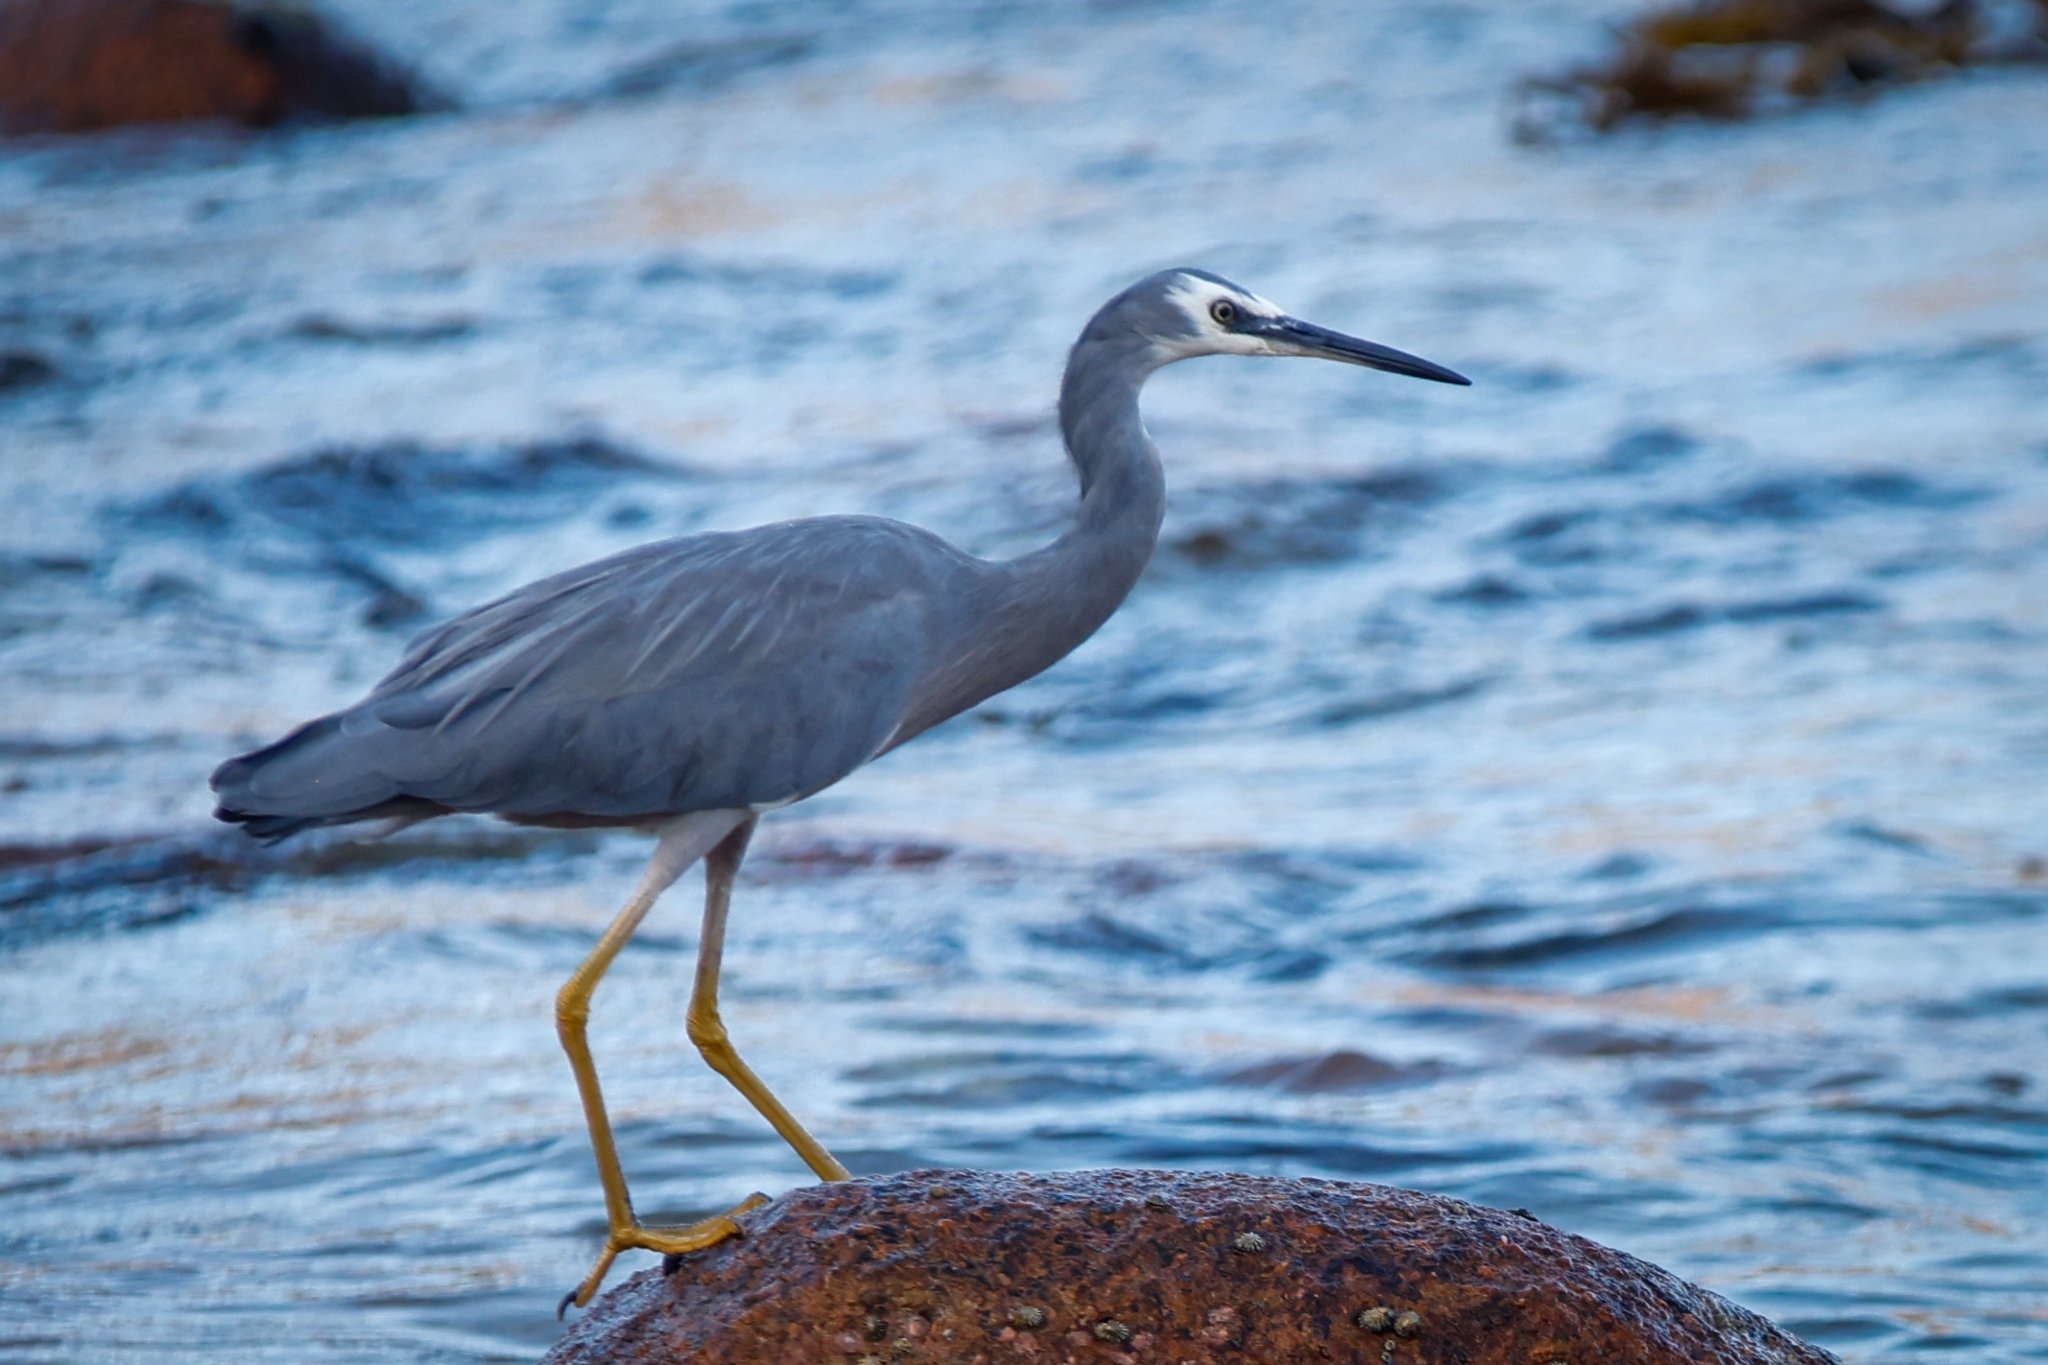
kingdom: Animalia
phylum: Chordata
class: Aves
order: Pelecaniformes
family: Ardeidae
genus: Egretta
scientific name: Egretta novaehollandiae
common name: White-faced heron
